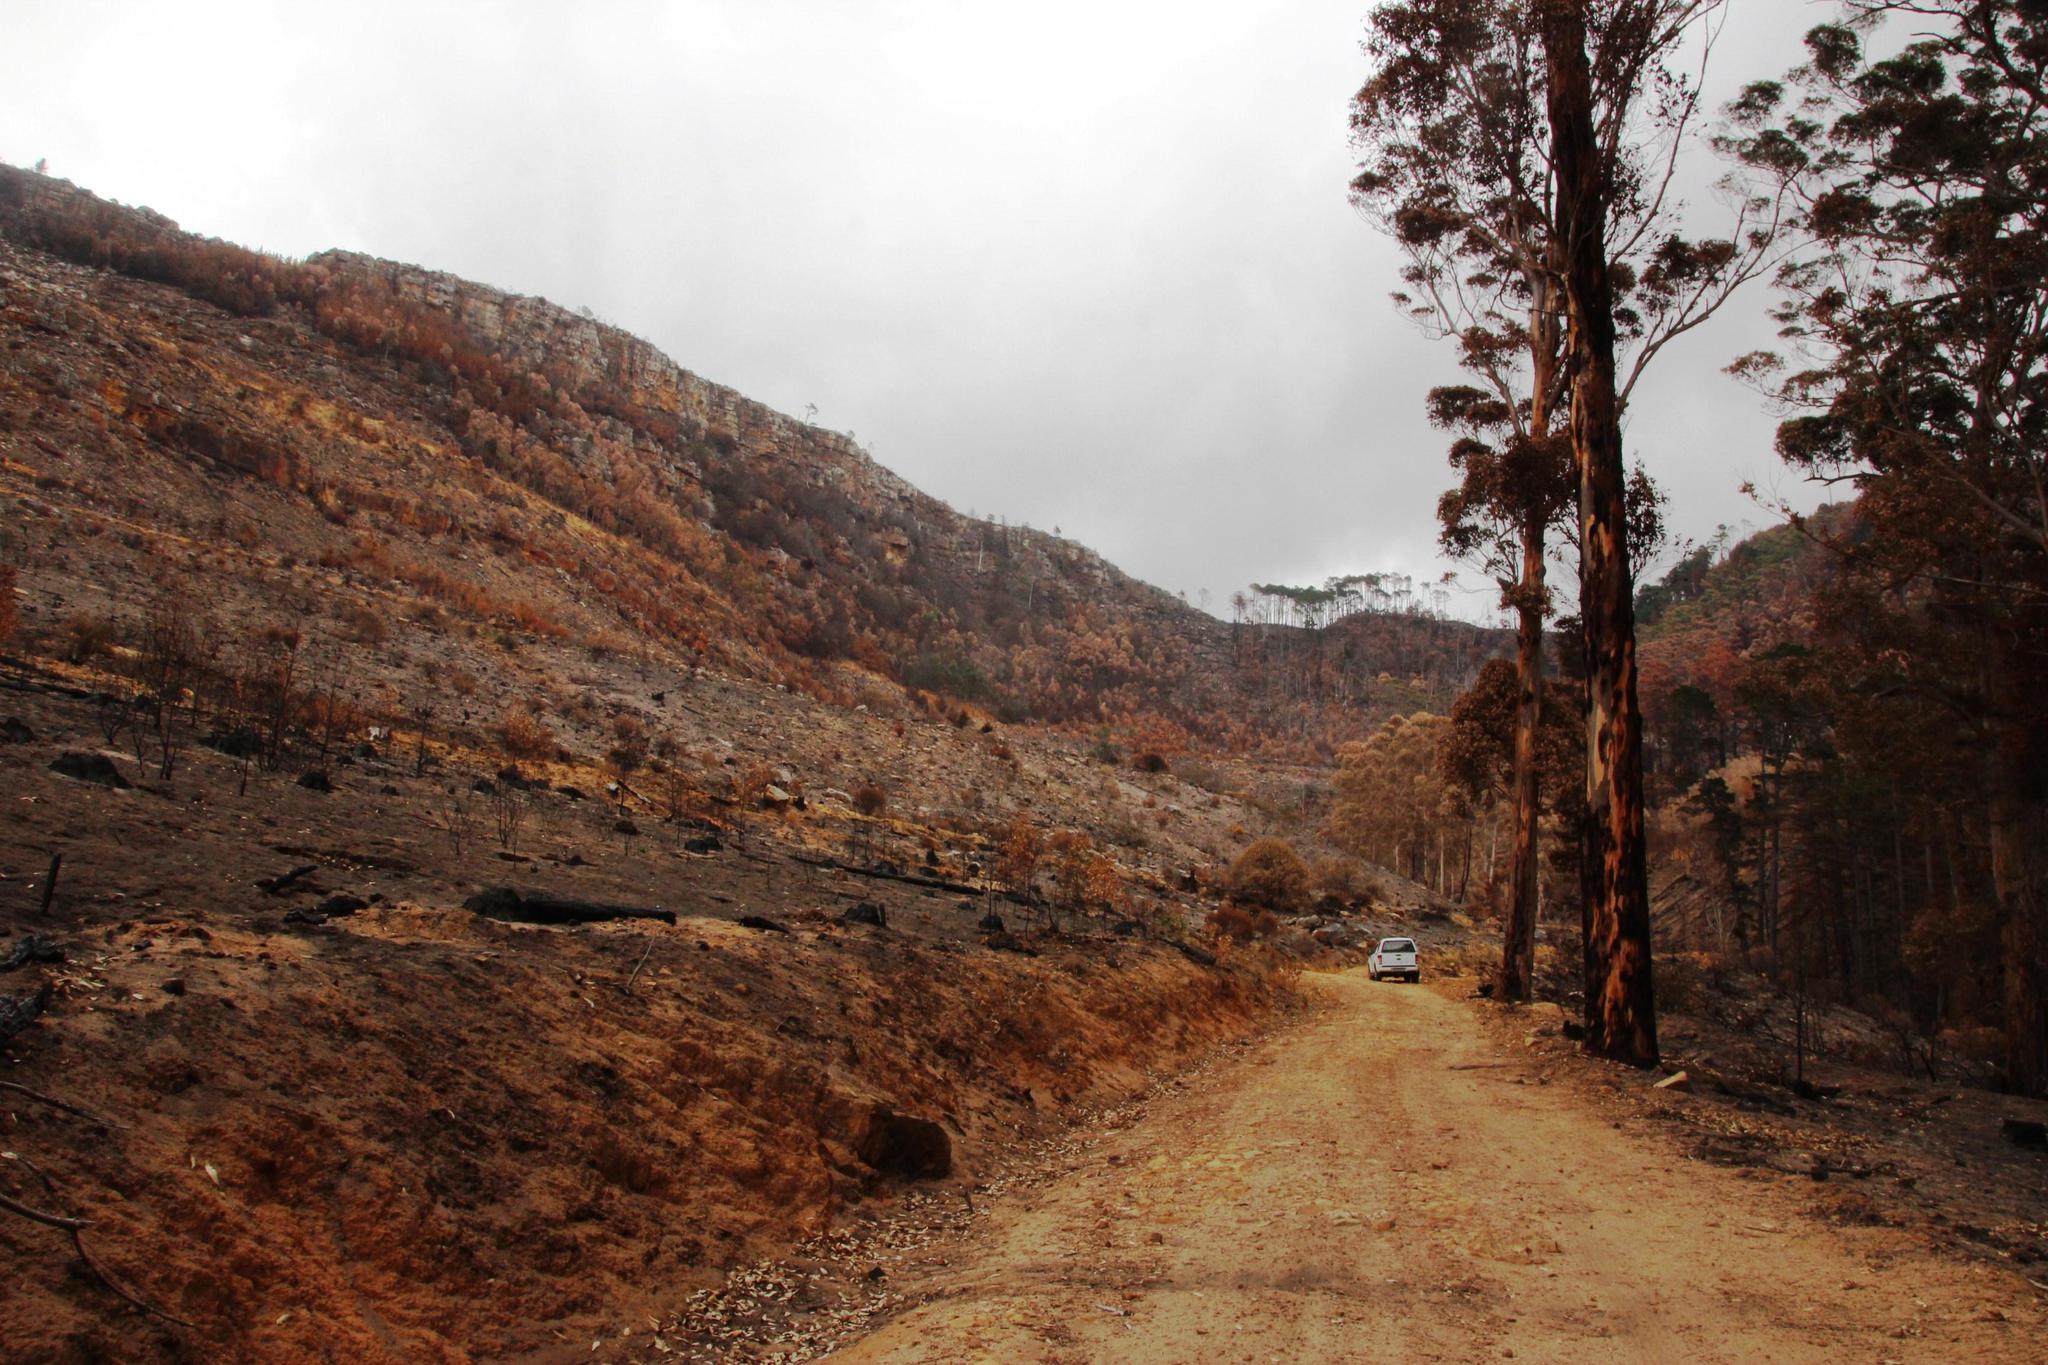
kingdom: Plantae
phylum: Tracheophyta
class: Magnoliopsida
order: Fabales
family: Fabaceae
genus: Acacia
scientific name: Acacia melanoxylon
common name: Blackwood
